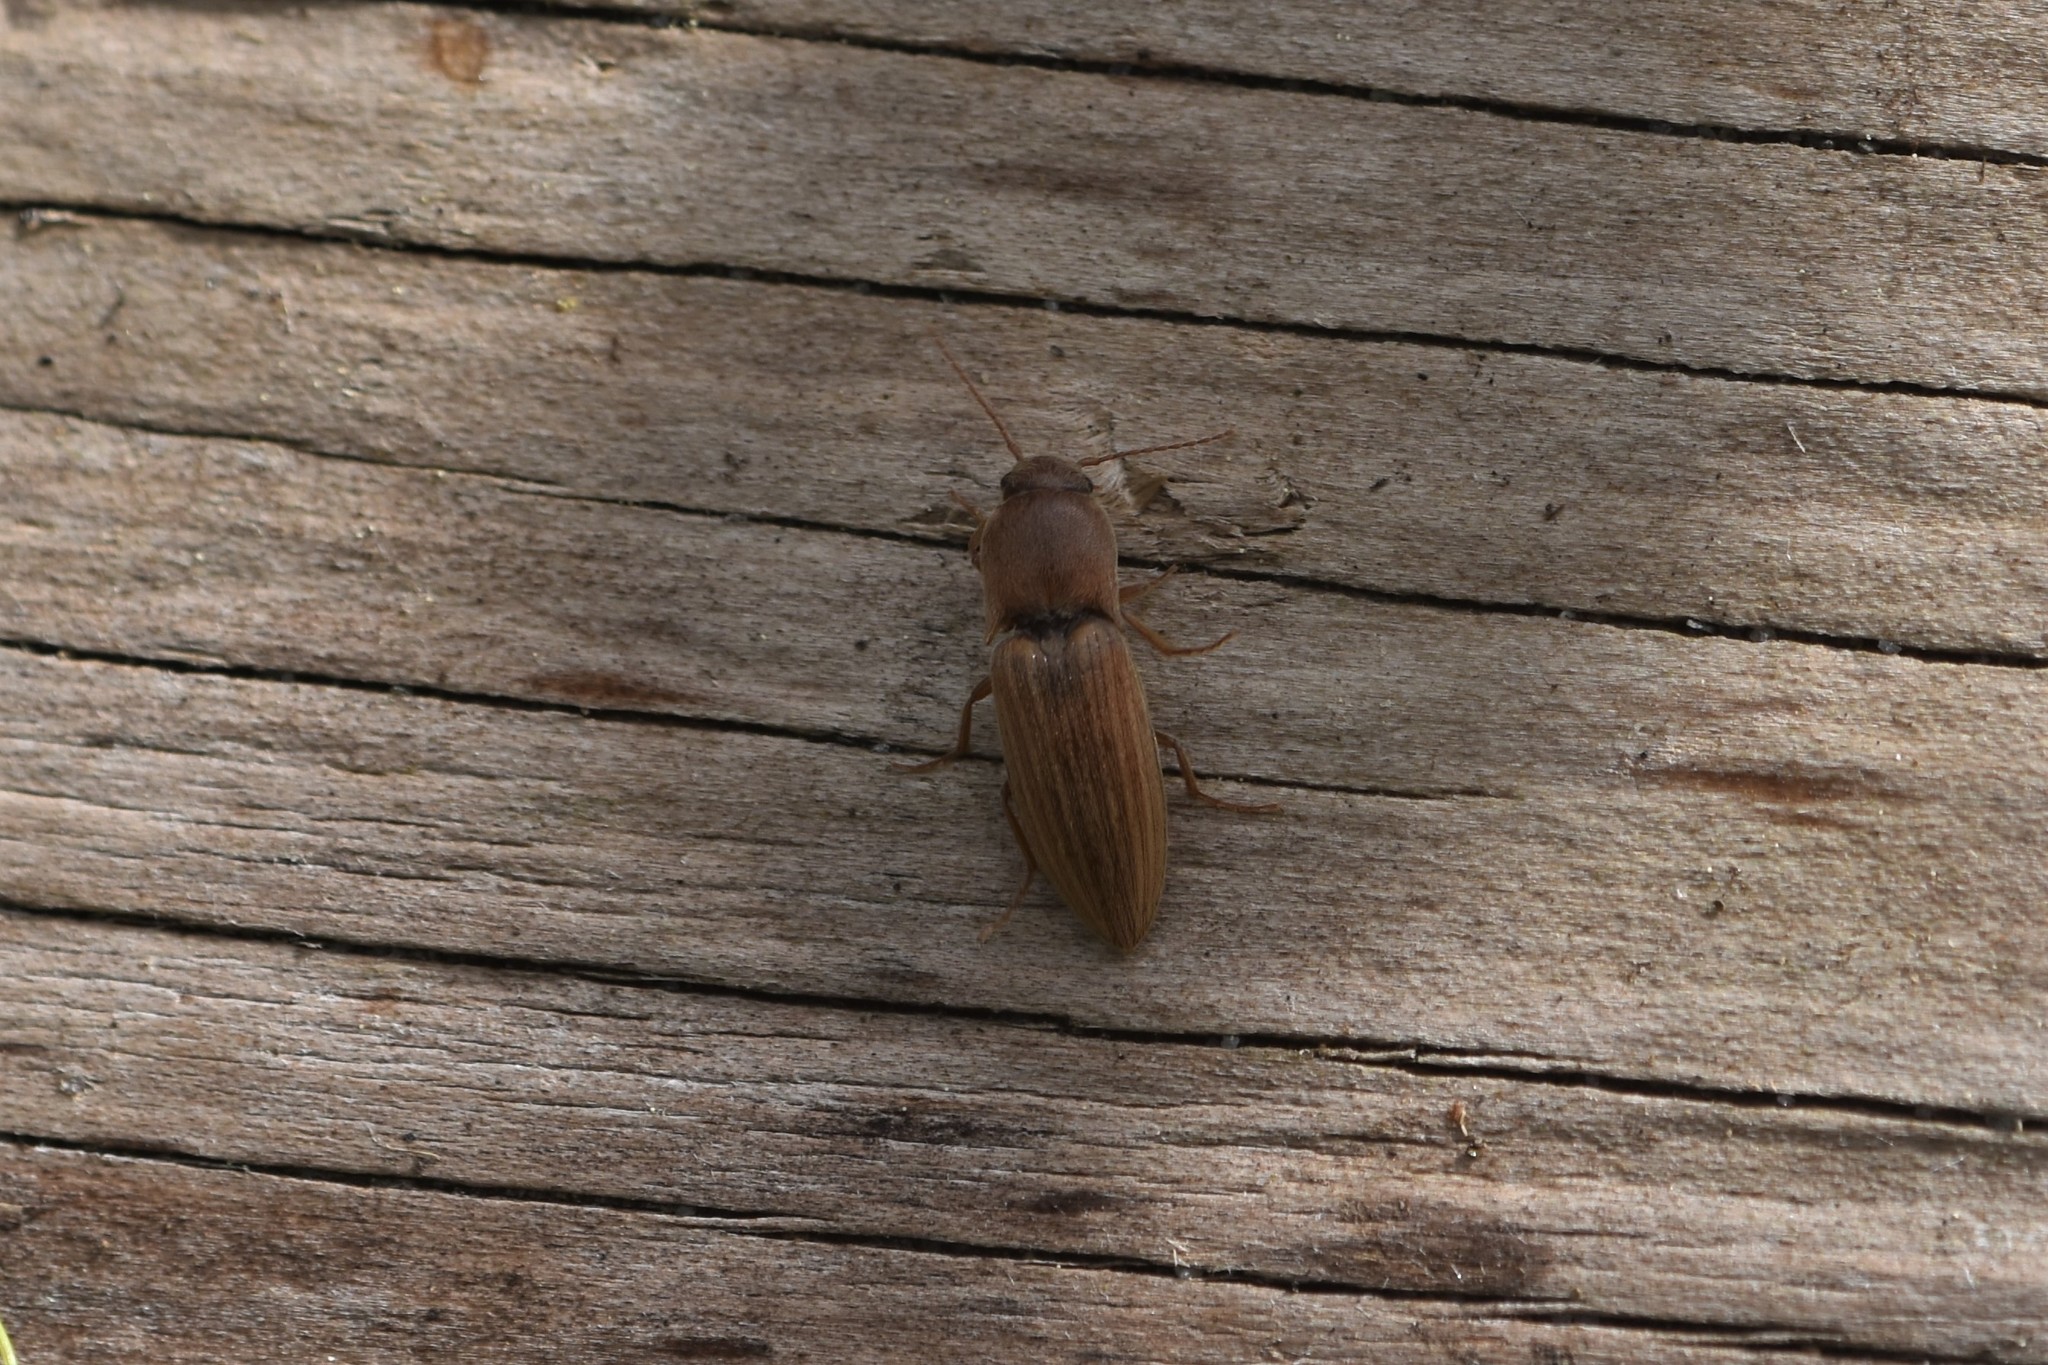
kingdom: Animalia
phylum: Arthropoda
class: Insecta
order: Coleoptera
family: Elateridae
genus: Agriotes
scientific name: Agriotes lineatus
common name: Lined click beetle
